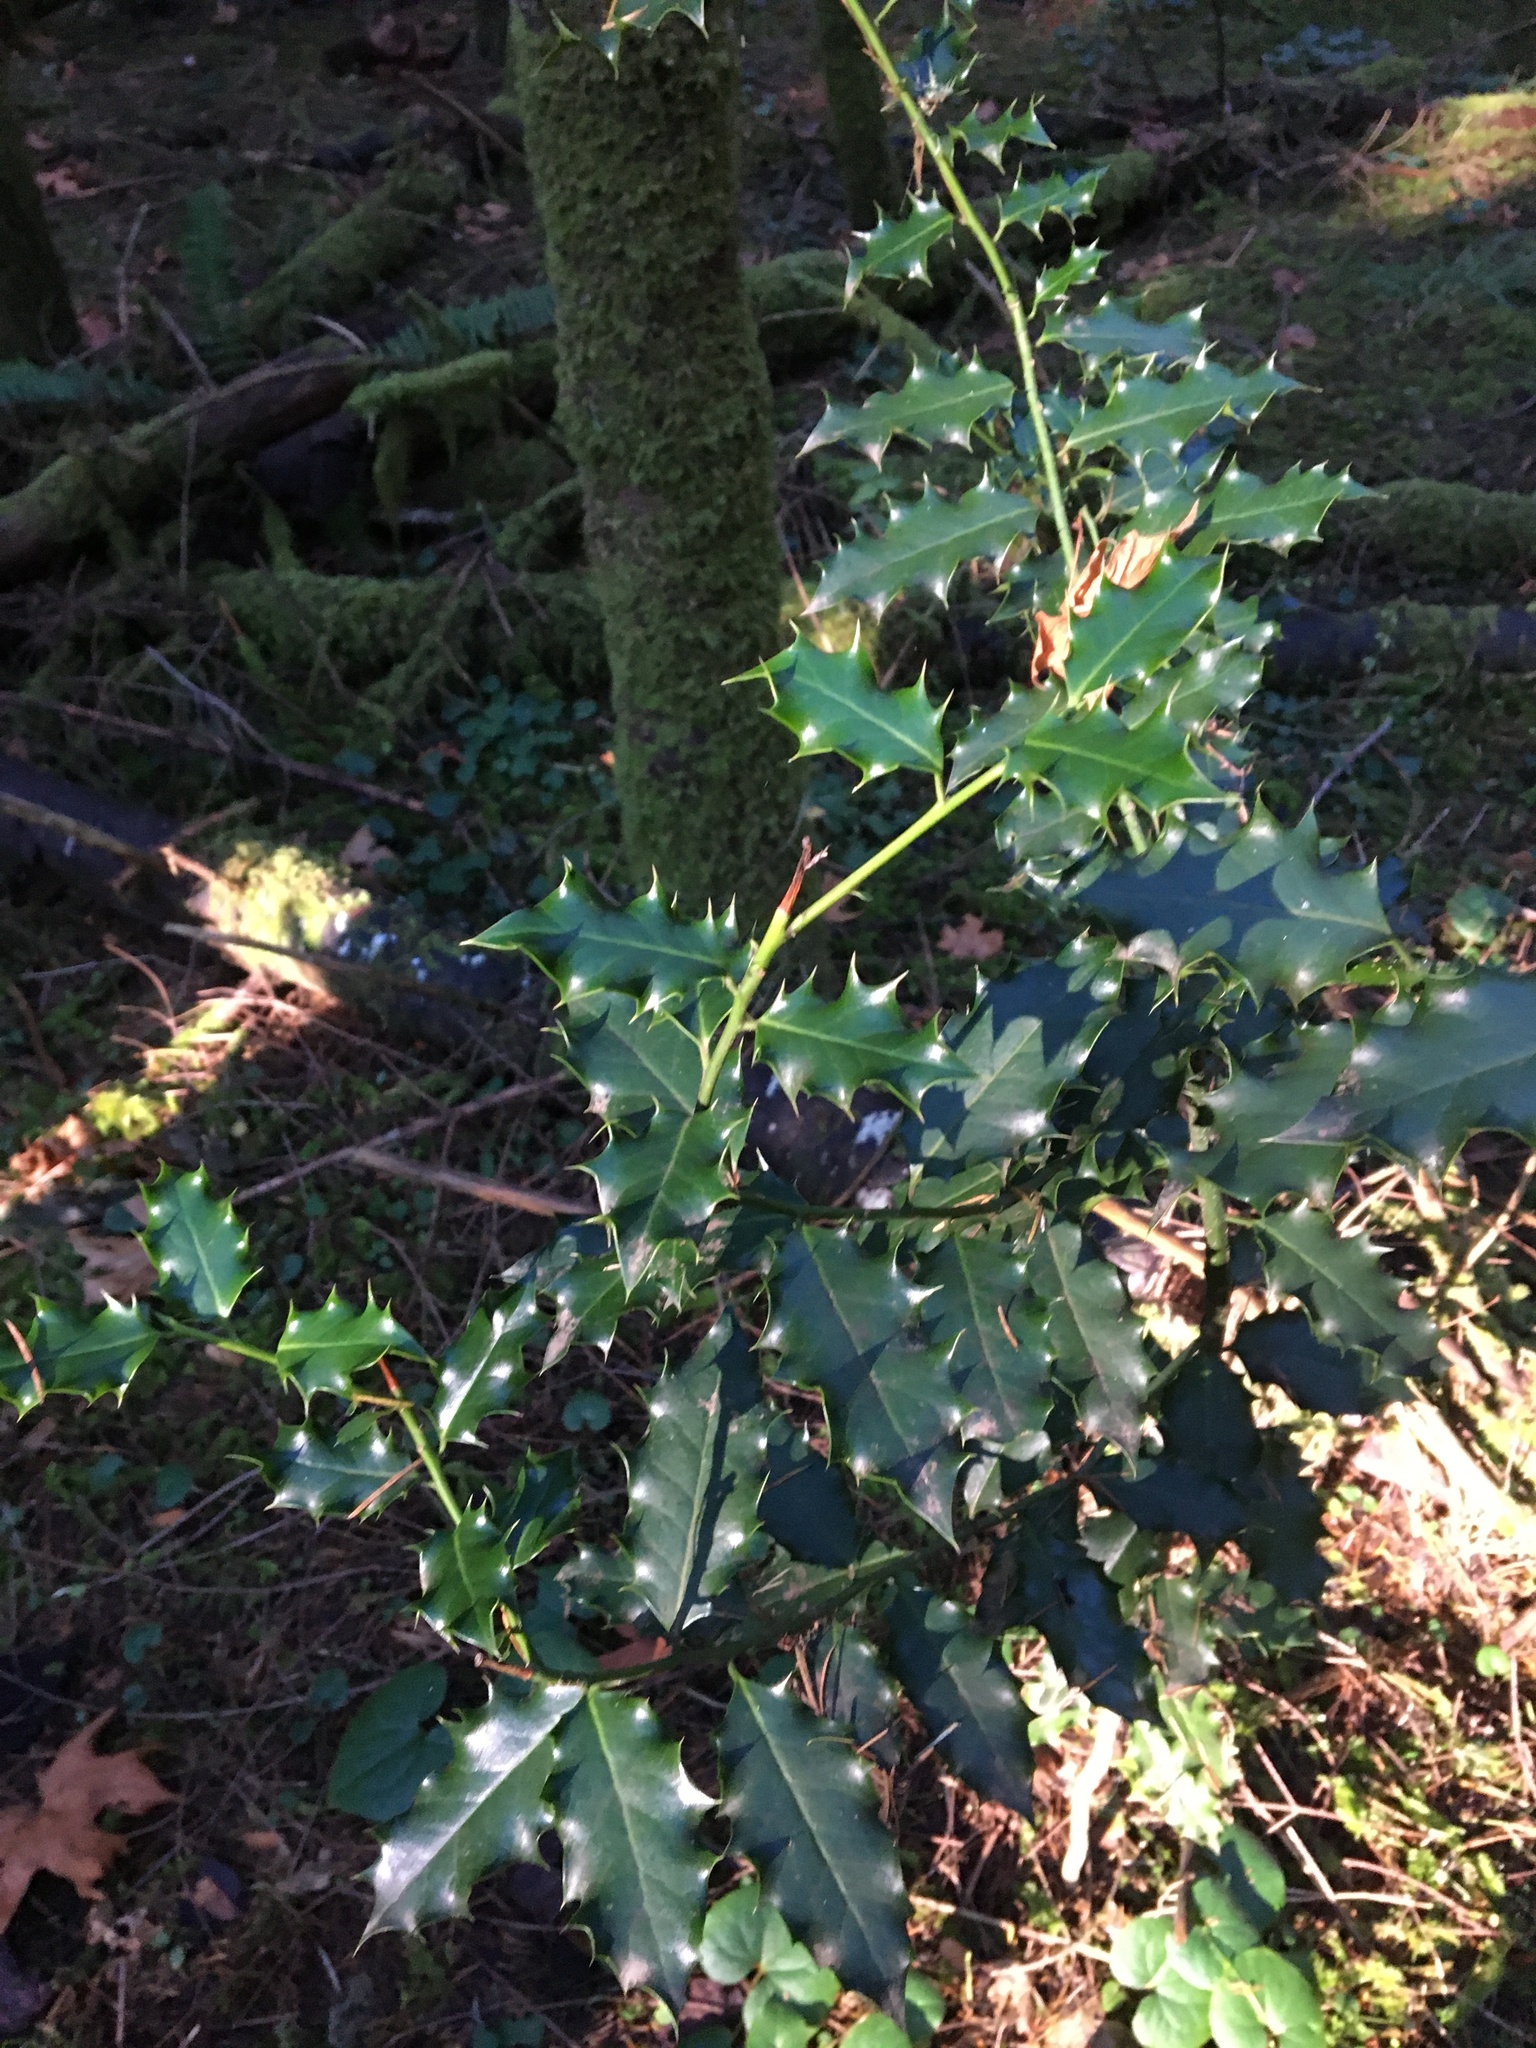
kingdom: Plantae
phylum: Tracheophyta
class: Magnoliopsida
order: Aquifoliales
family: Aquifoliaceae
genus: Ilex
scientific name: Ilex aquifolium
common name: English holly
